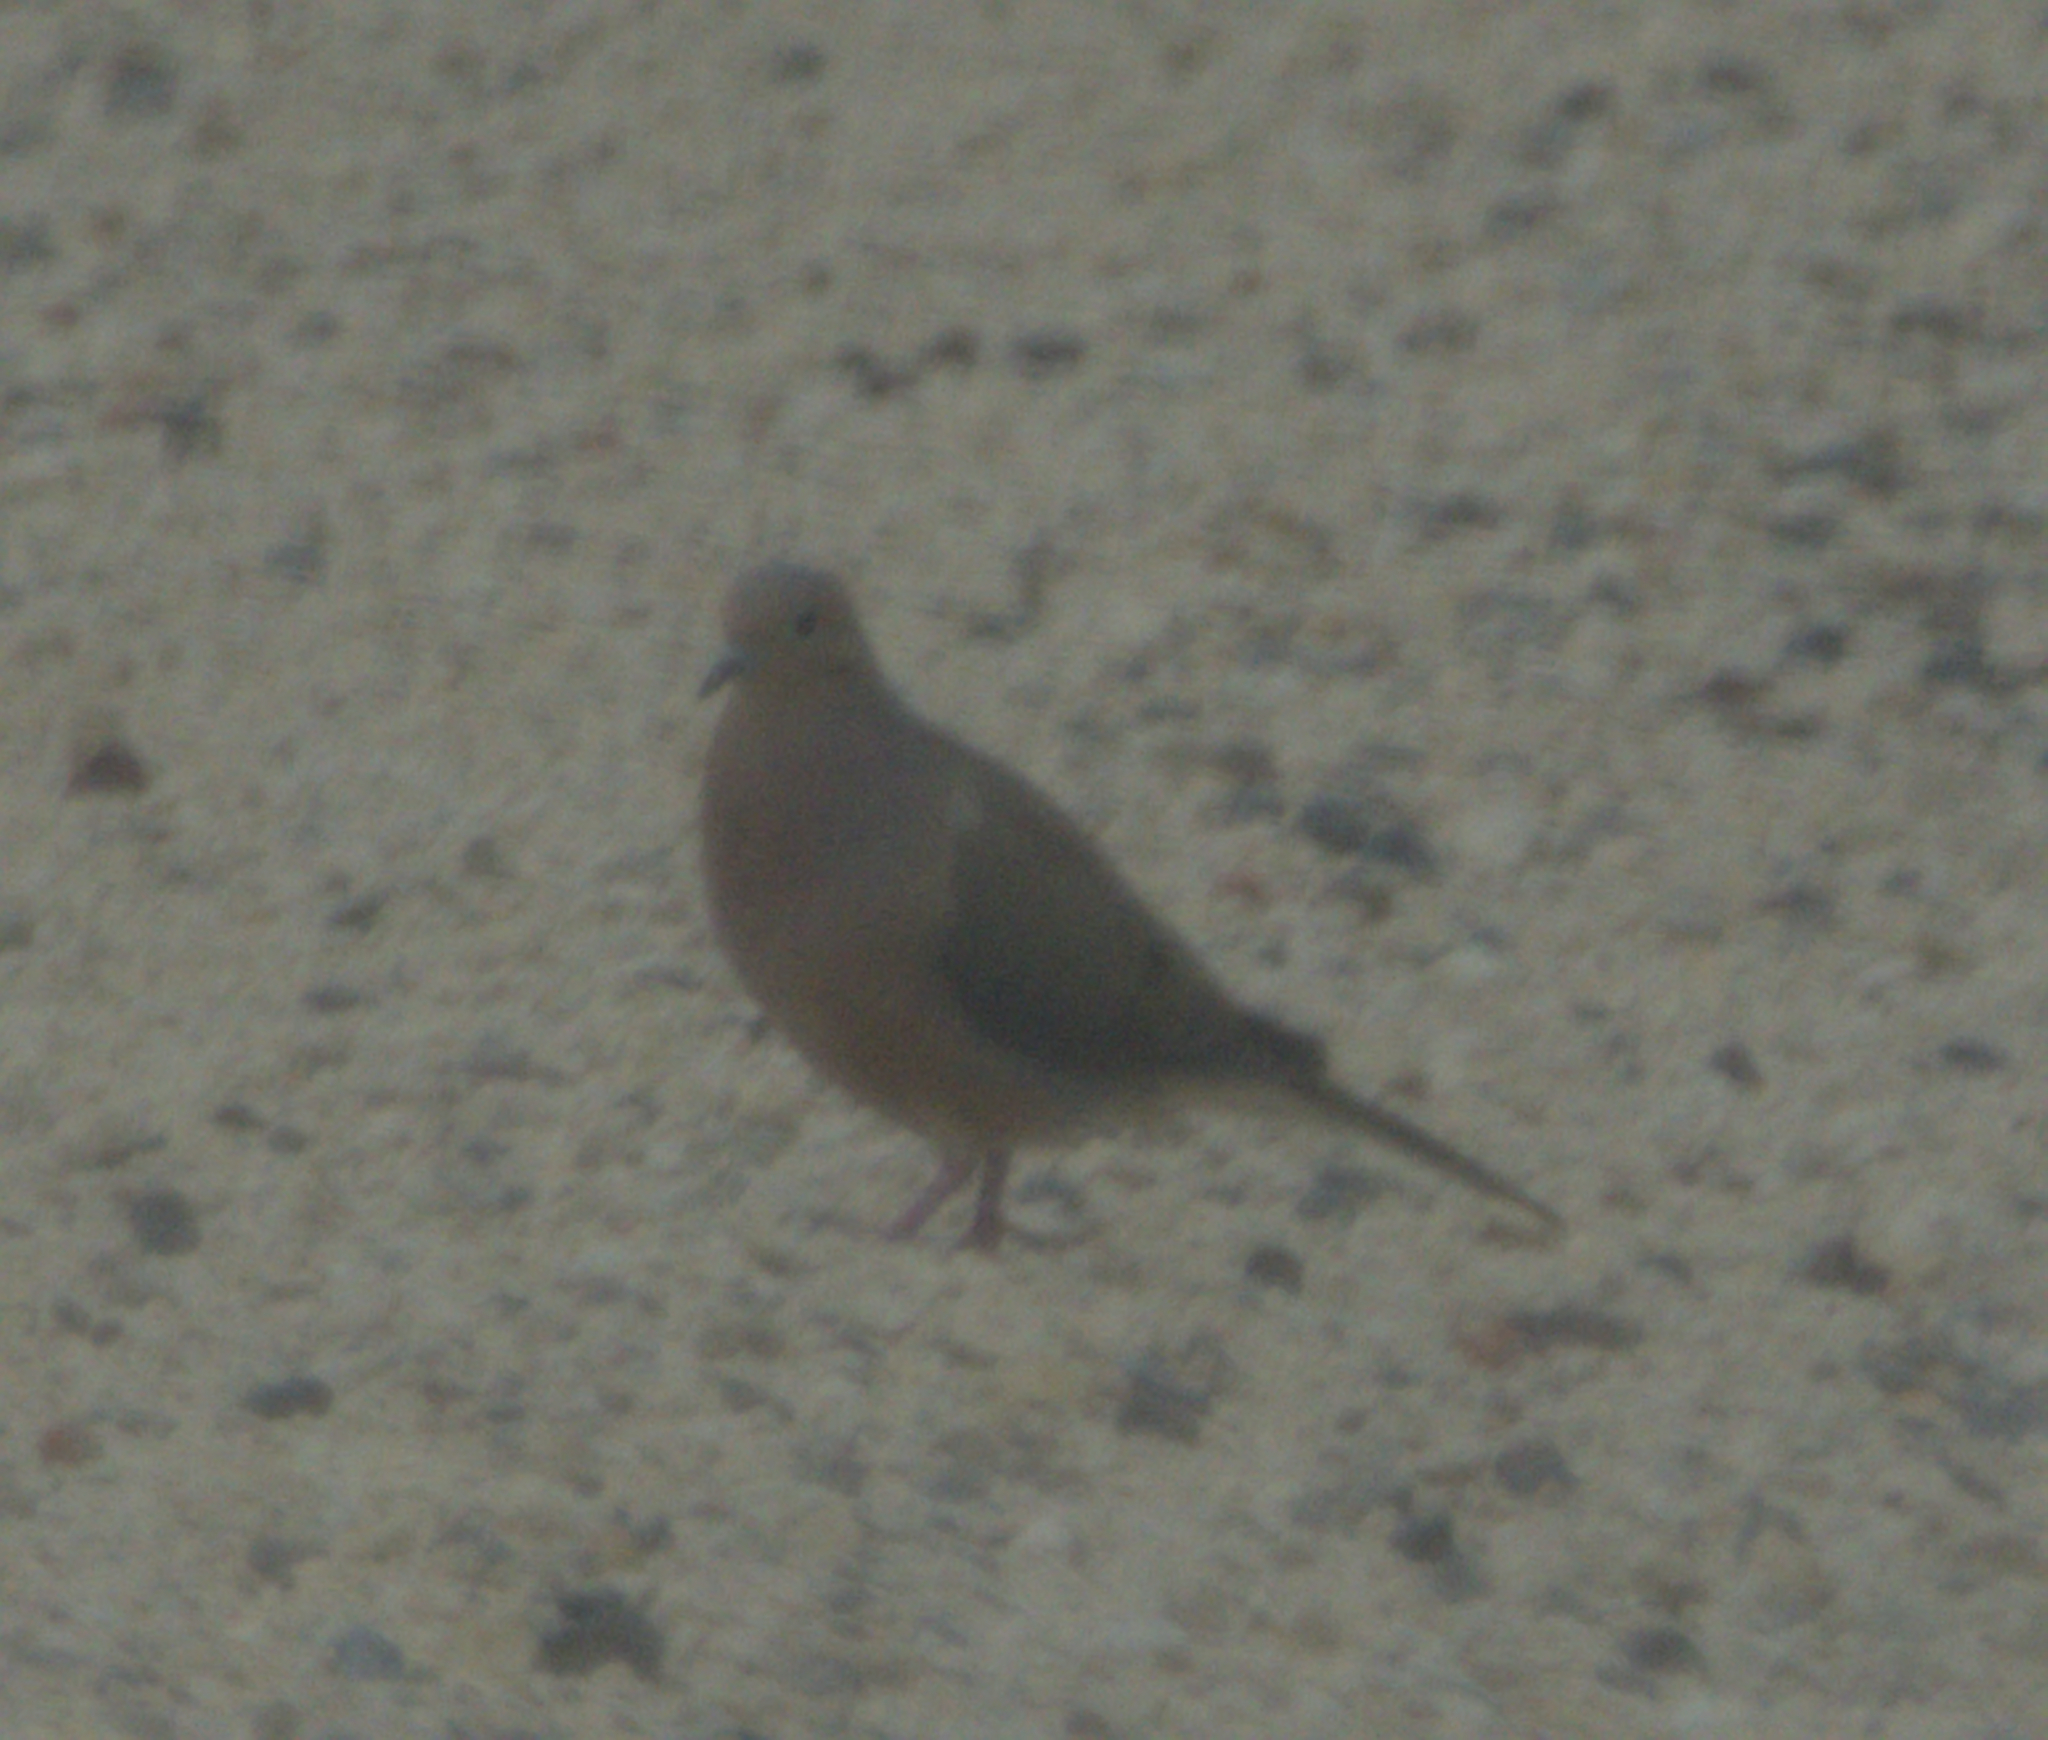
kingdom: Animalia
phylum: Chordata
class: Aves
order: Columbiformes
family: Columbidae
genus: Zenaida
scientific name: Zenaida macroura
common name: Mourning dove
